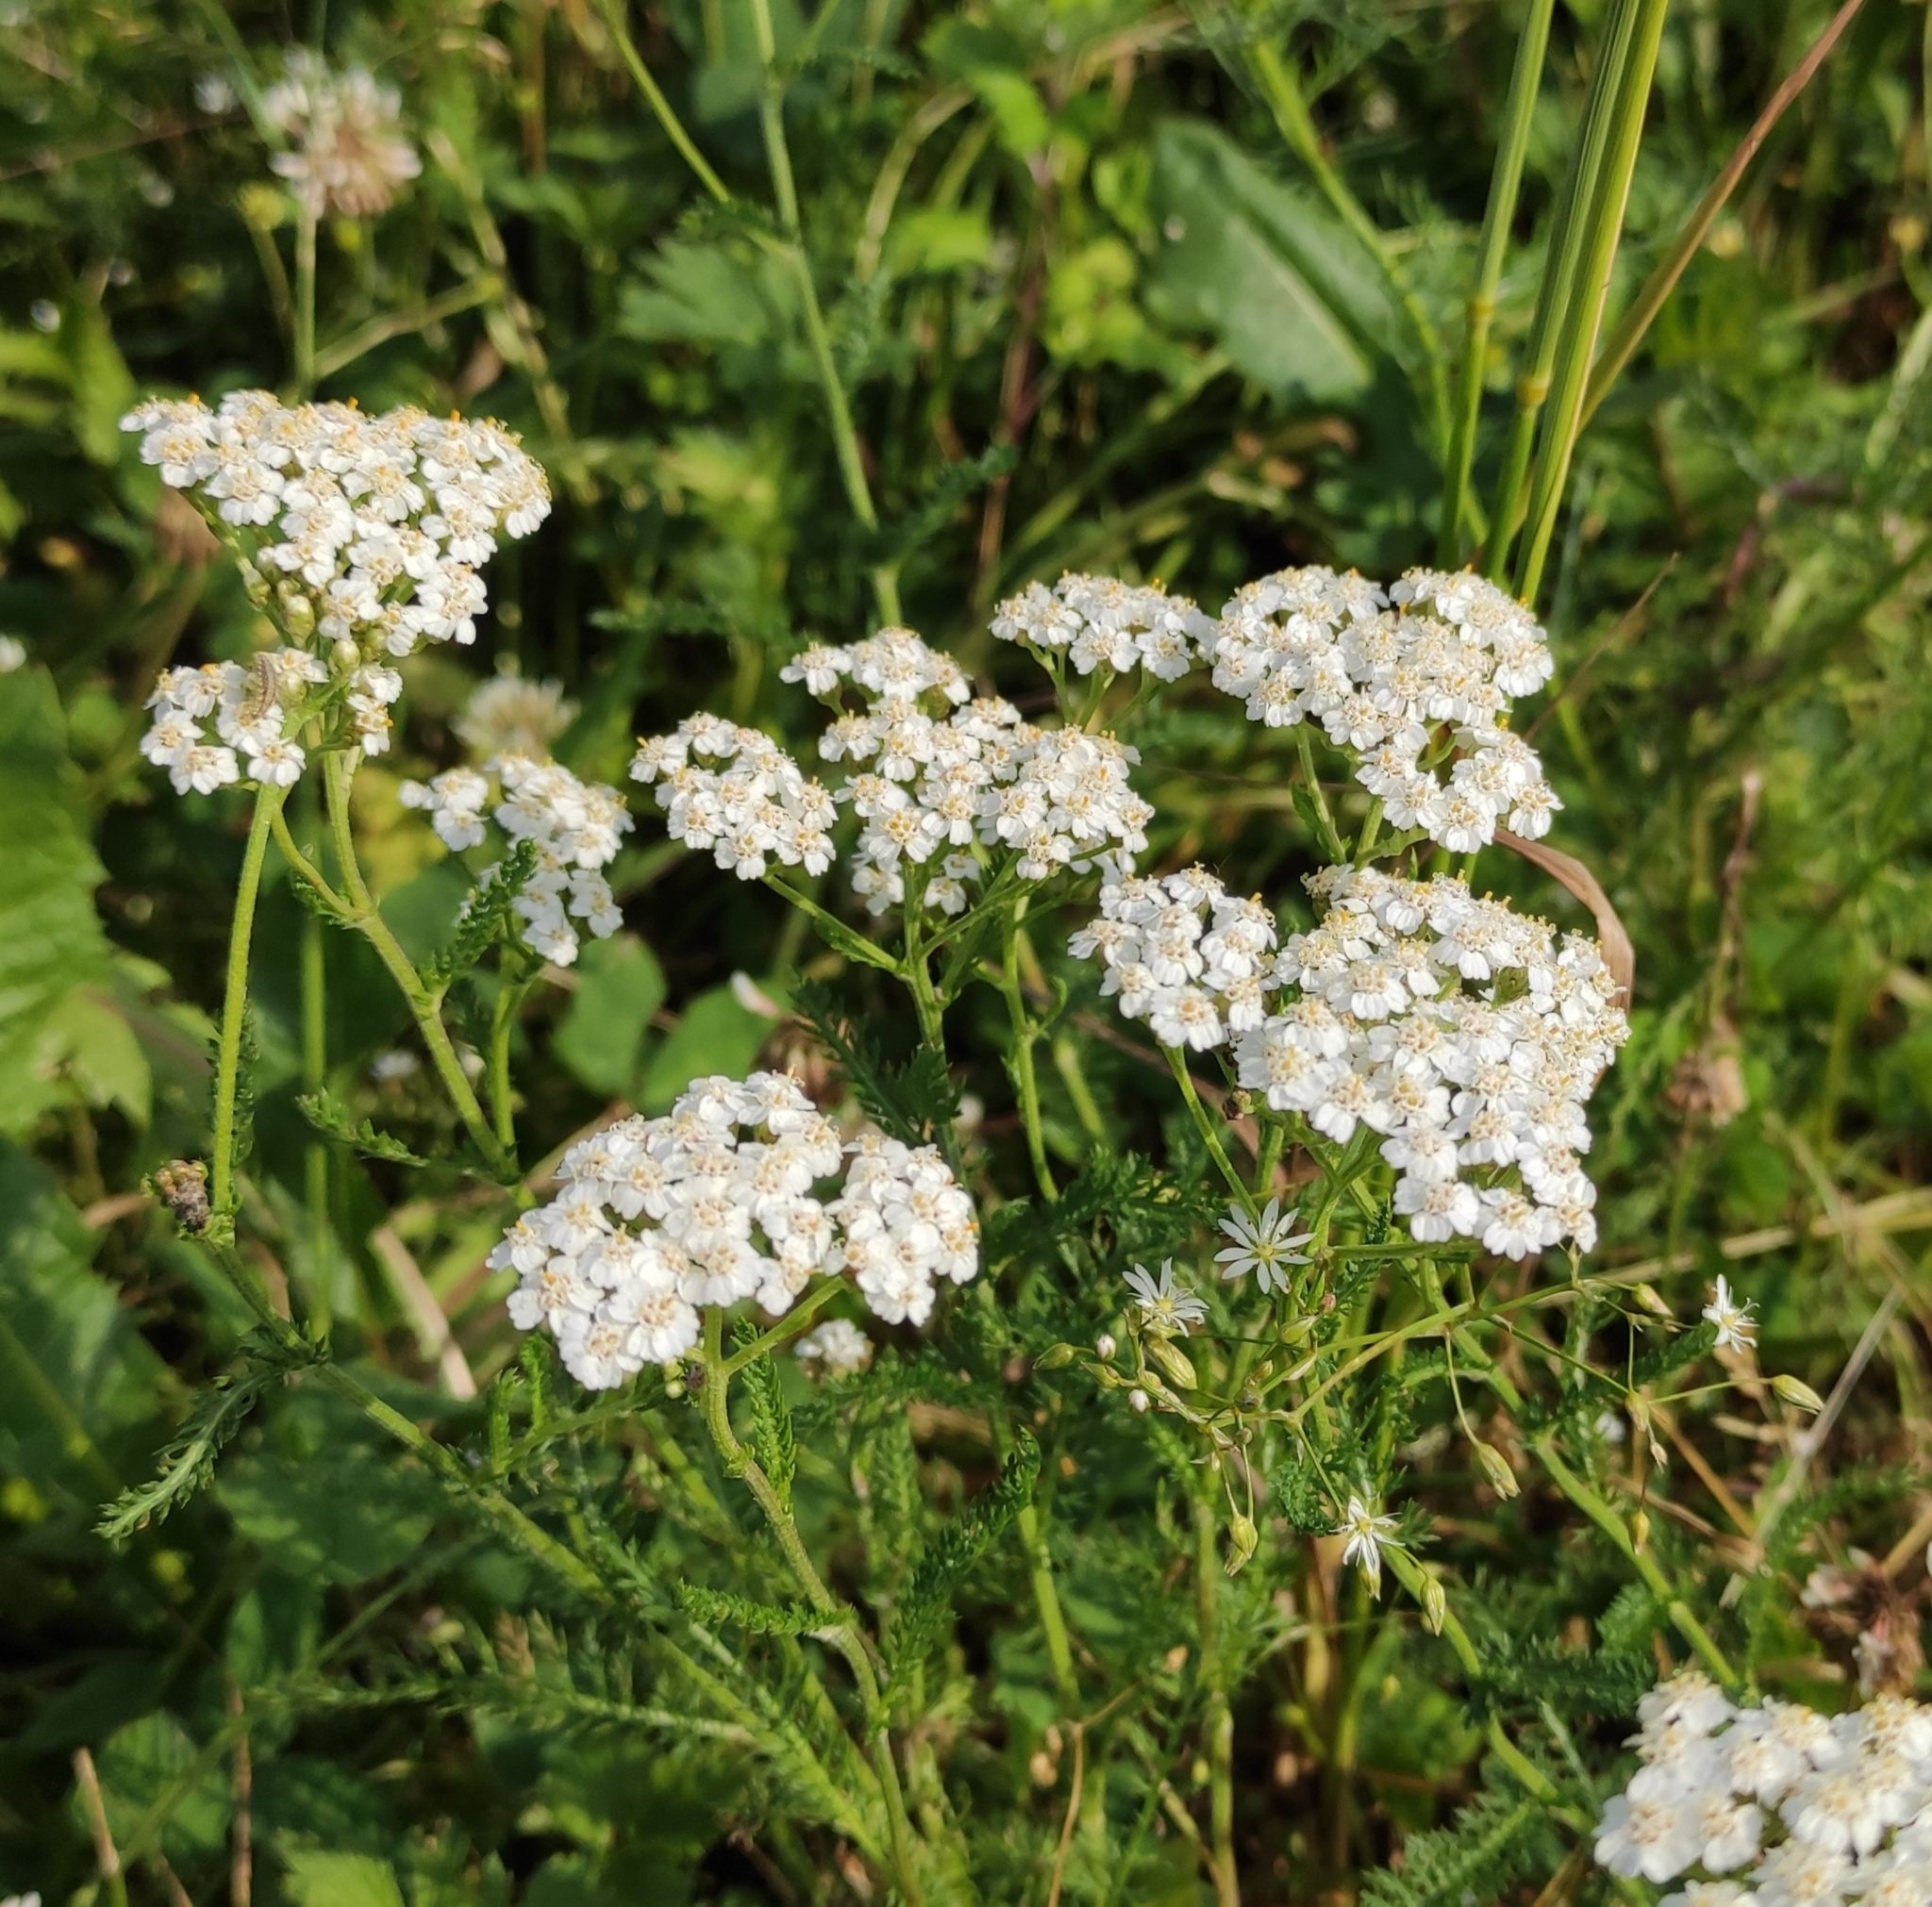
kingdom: Plantae
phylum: Tracheophyta
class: Magnoliopsida
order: Asterales
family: Asteraceae
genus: Achillea
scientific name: Achillea millefolium
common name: Yarrow
